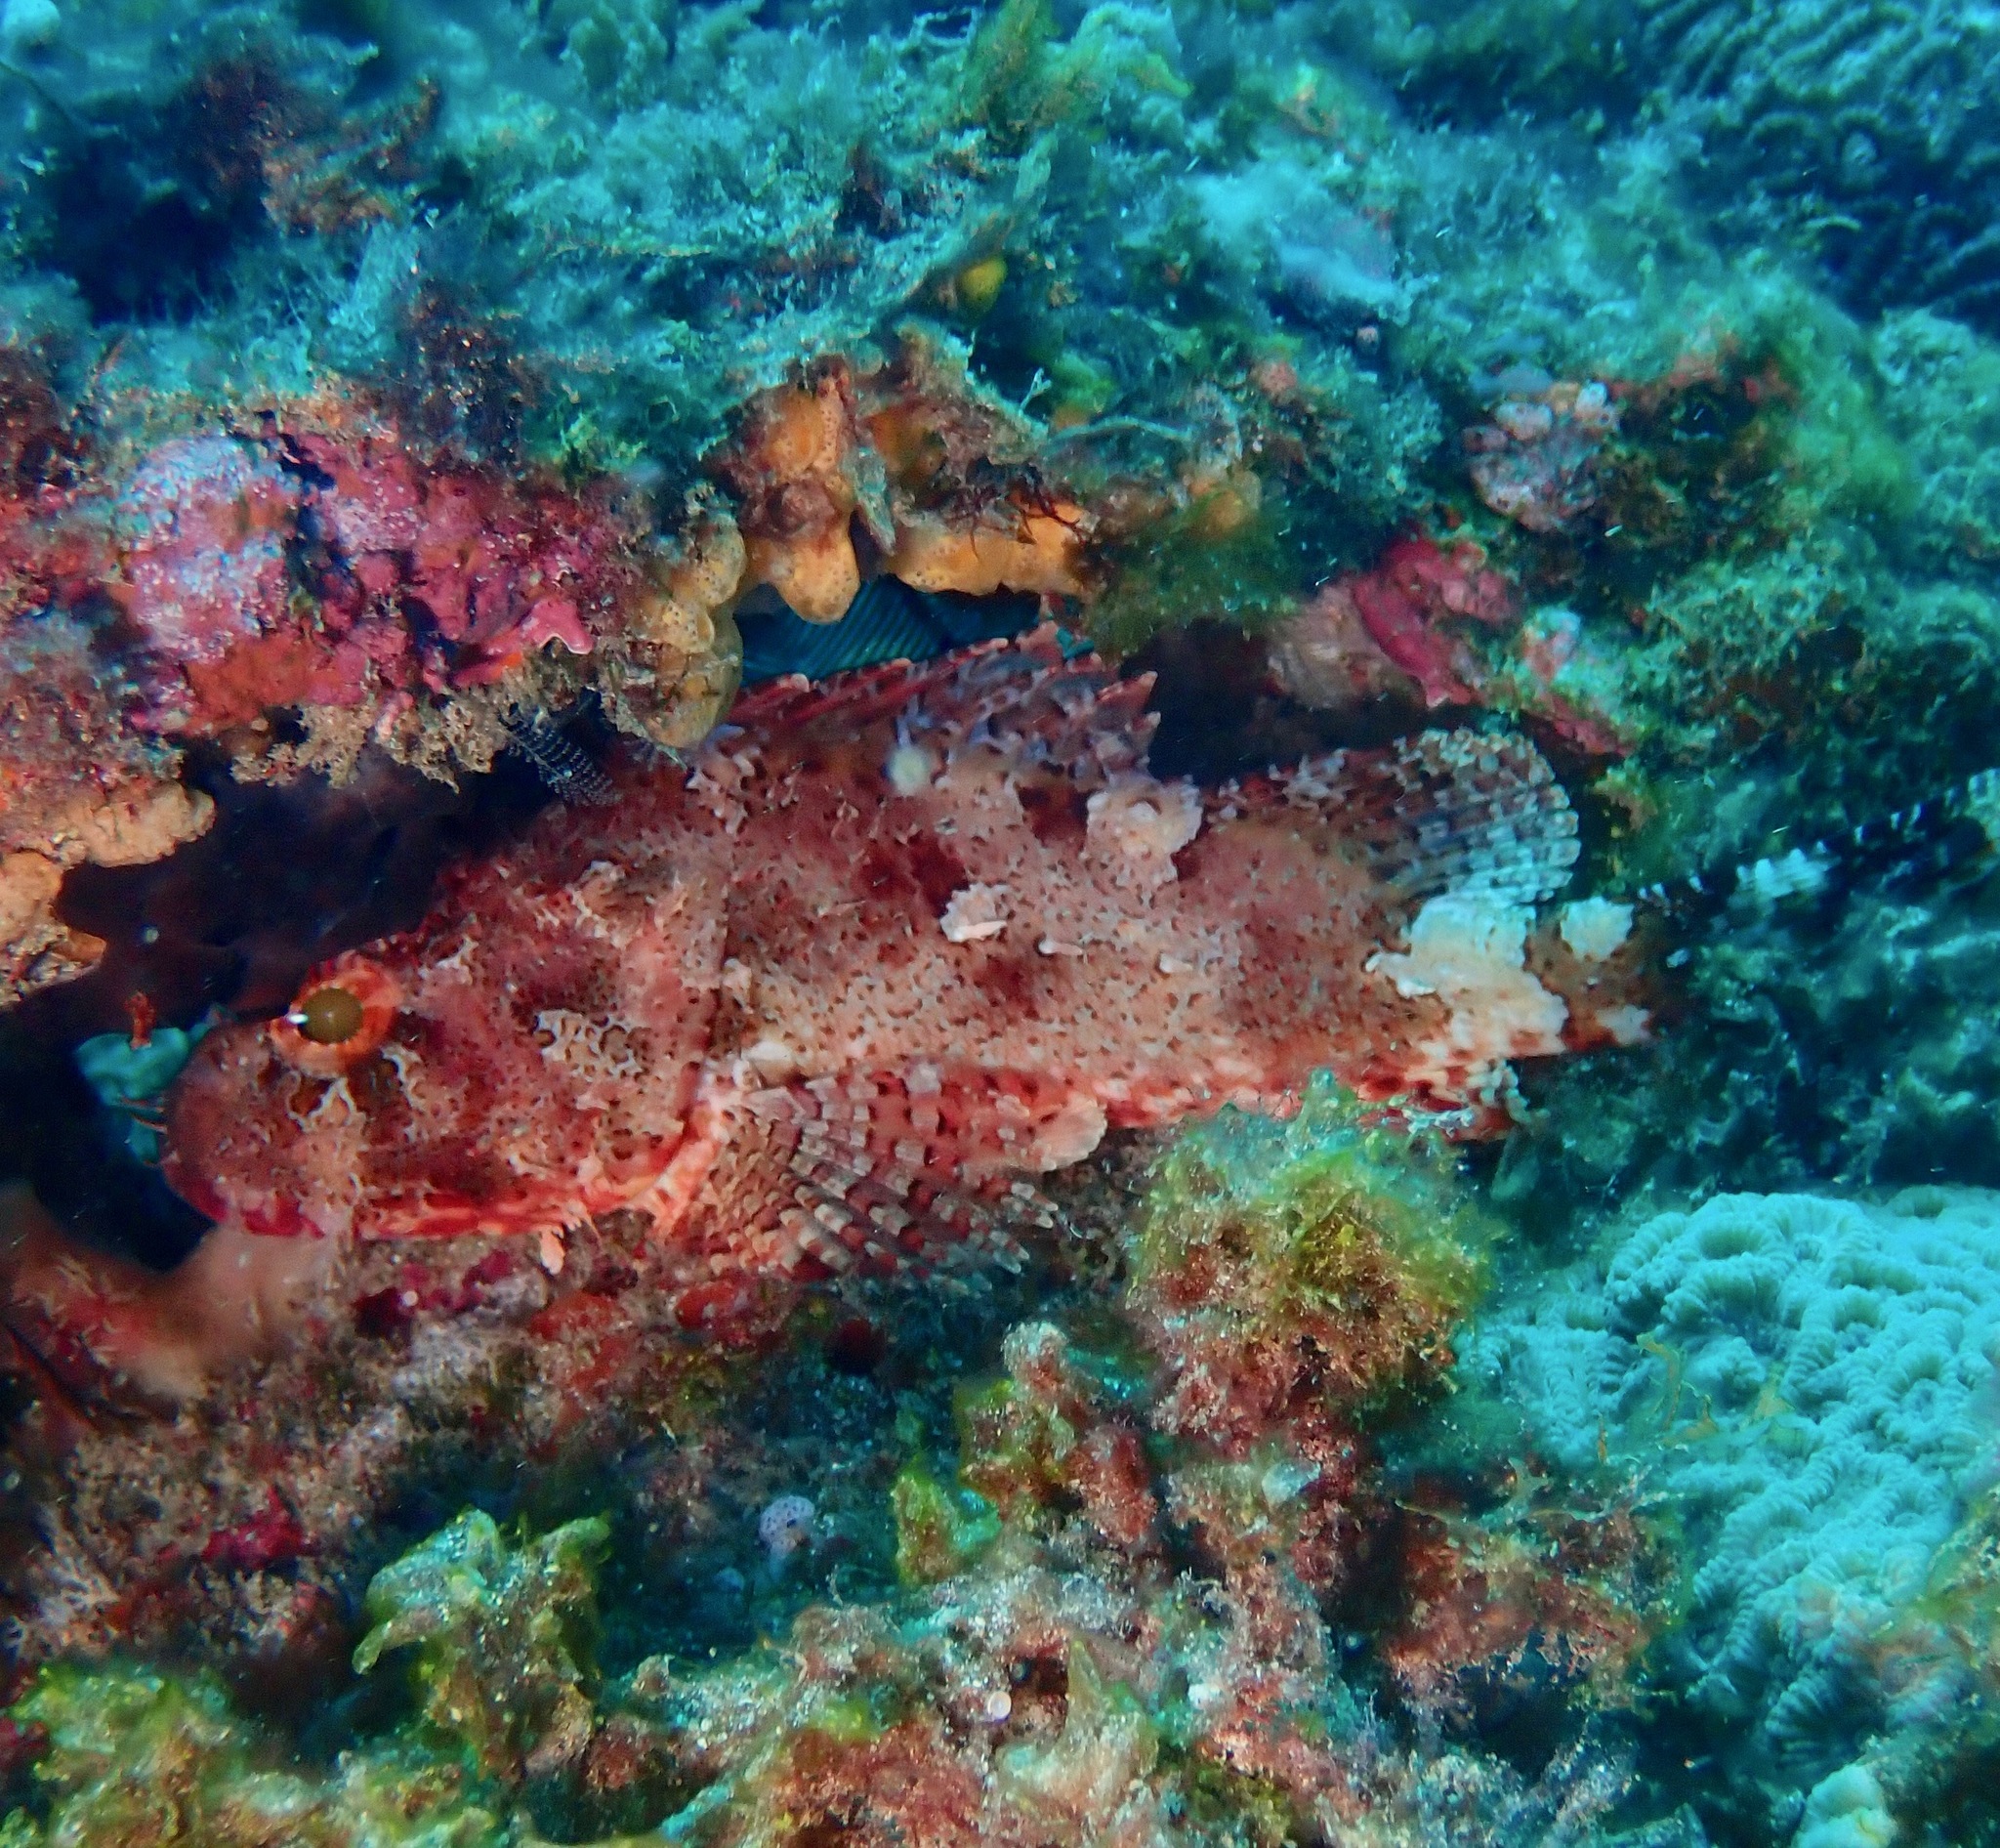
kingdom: Animalia
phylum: Chordata
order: Scorpaeniformes
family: Scorpaenidae
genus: Scorpaena
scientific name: Scorpaena cardinalis
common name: Cardinal scorpionfish
